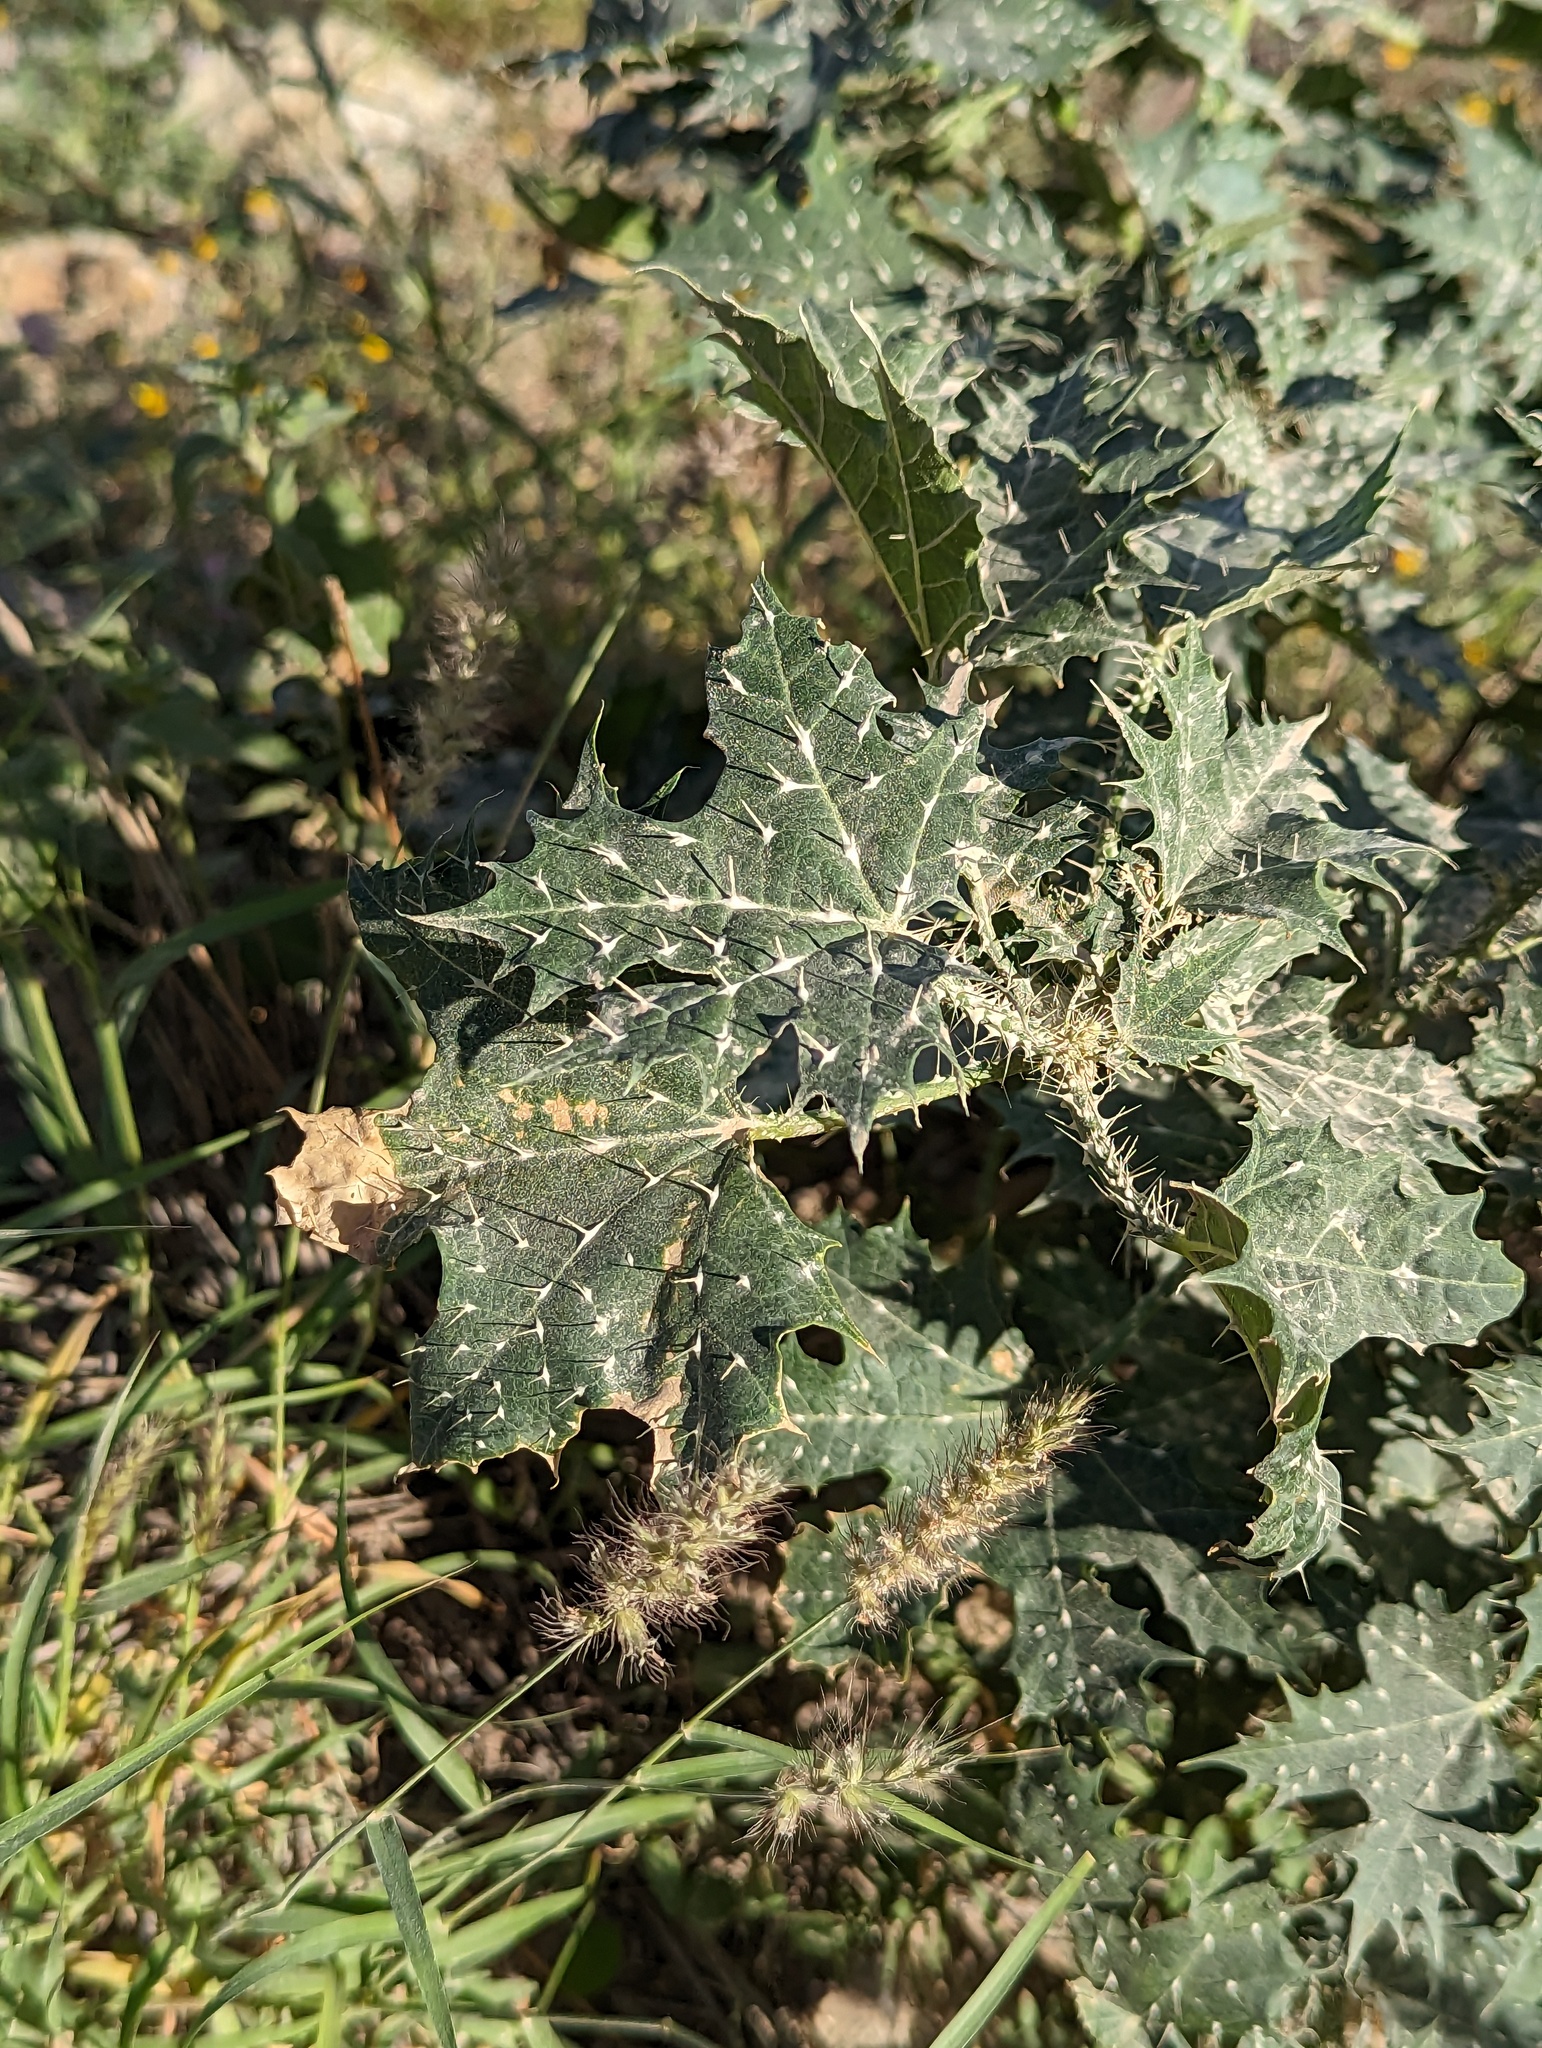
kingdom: Plantae
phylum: Tracheophyta
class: Magnoliopsida
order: Malpighiales
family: Euphorbiaceae
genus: Cnidoscolus
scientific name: Cnidoscolus maculatus
